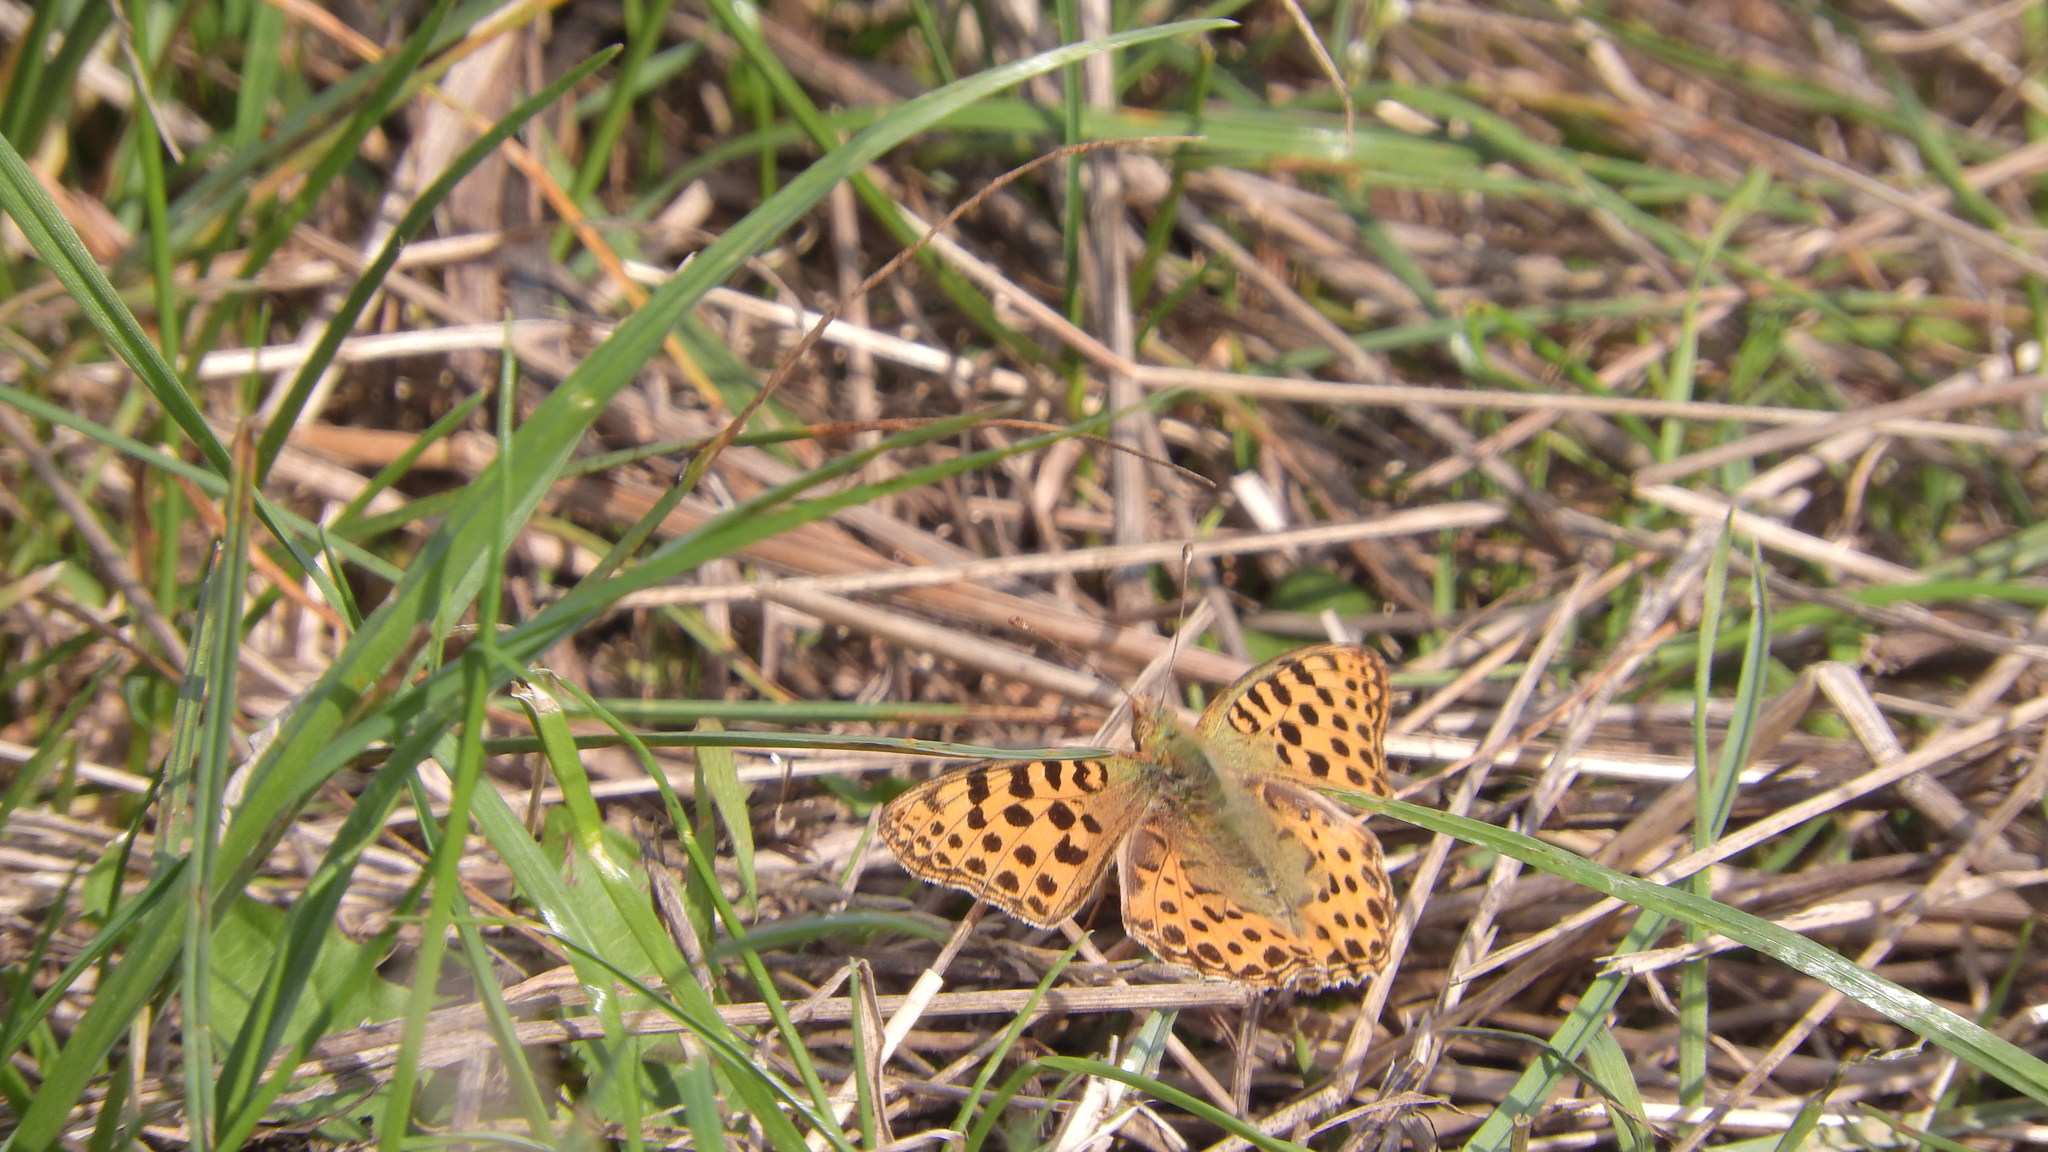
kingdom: Animalia
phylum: Arthropoda
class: Insecta
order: Lepidoptera
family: Nymphalidae
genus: Issoria
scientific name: Issoria lathonia
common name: Queen of spain fritillary
